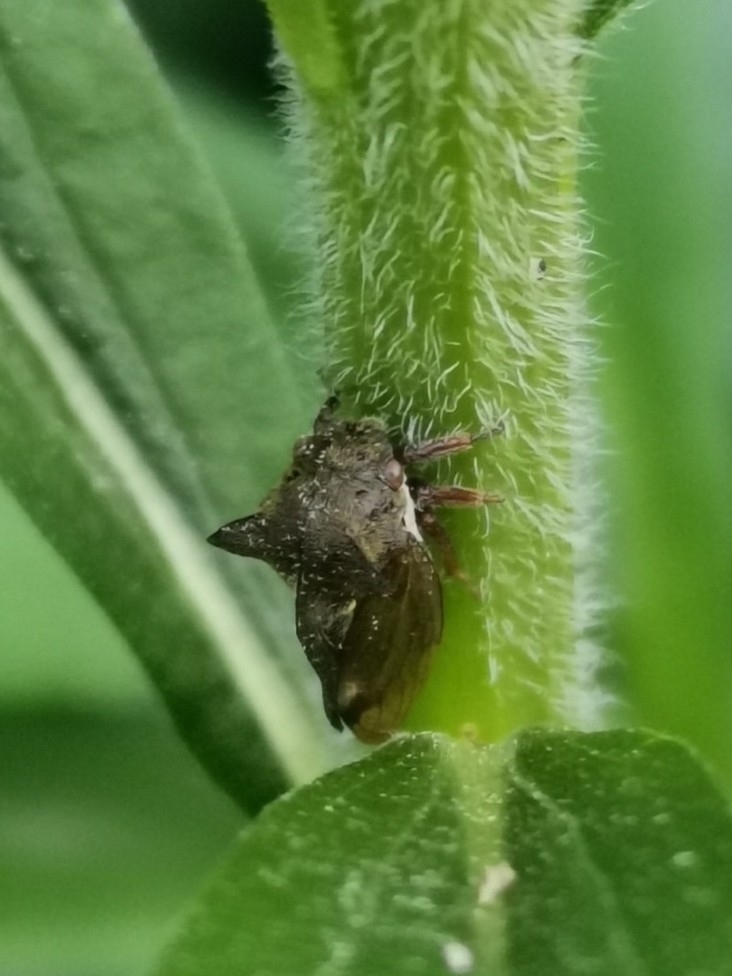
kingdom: Animalia
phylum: Arthropoda
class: Insecta
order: Hemiptera
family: Membracidae
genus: Centrotus
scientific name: Centrotus cornuta
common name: Treehopper
